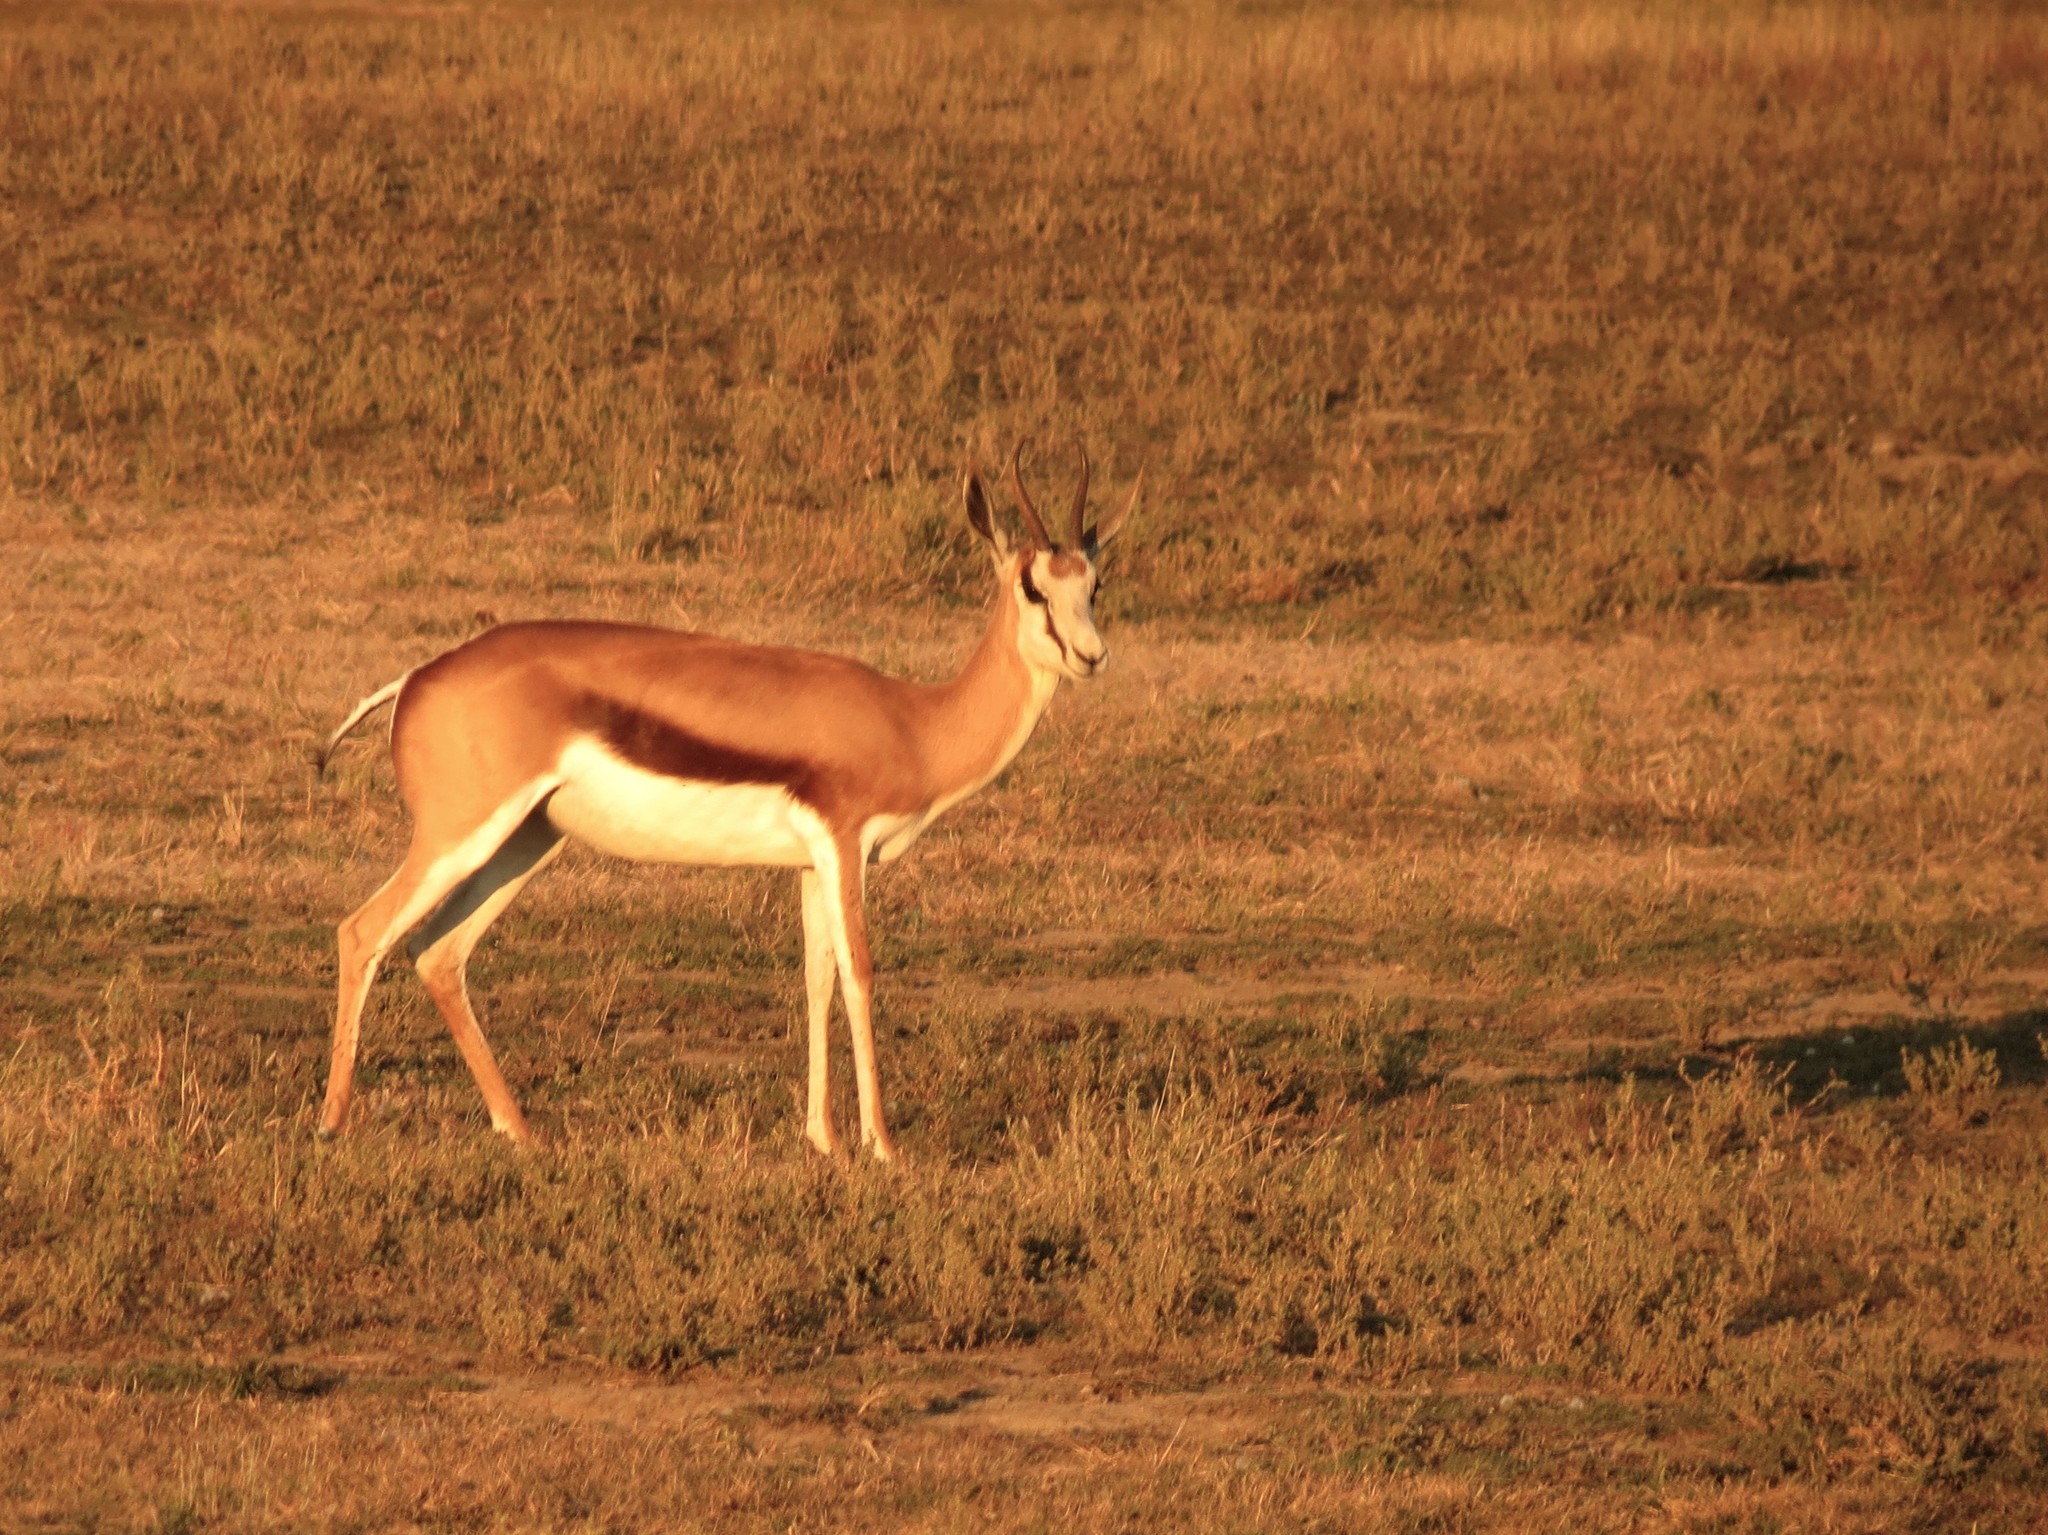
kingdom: Animalia
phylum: Chordata
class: Mammalia
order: Artiodactyla
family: Bovidae
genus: Antidorcas
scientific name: Antidorcas marsupialis
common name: Springbok
